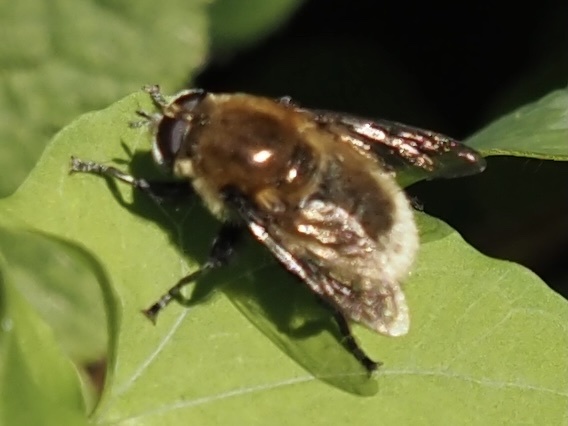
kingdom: Animalia
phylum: Arthropoda
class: Insecta
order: Diptera
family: Syrphidae
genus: Merodon
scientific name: Merodon equestris
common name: Greater bulb-fly
